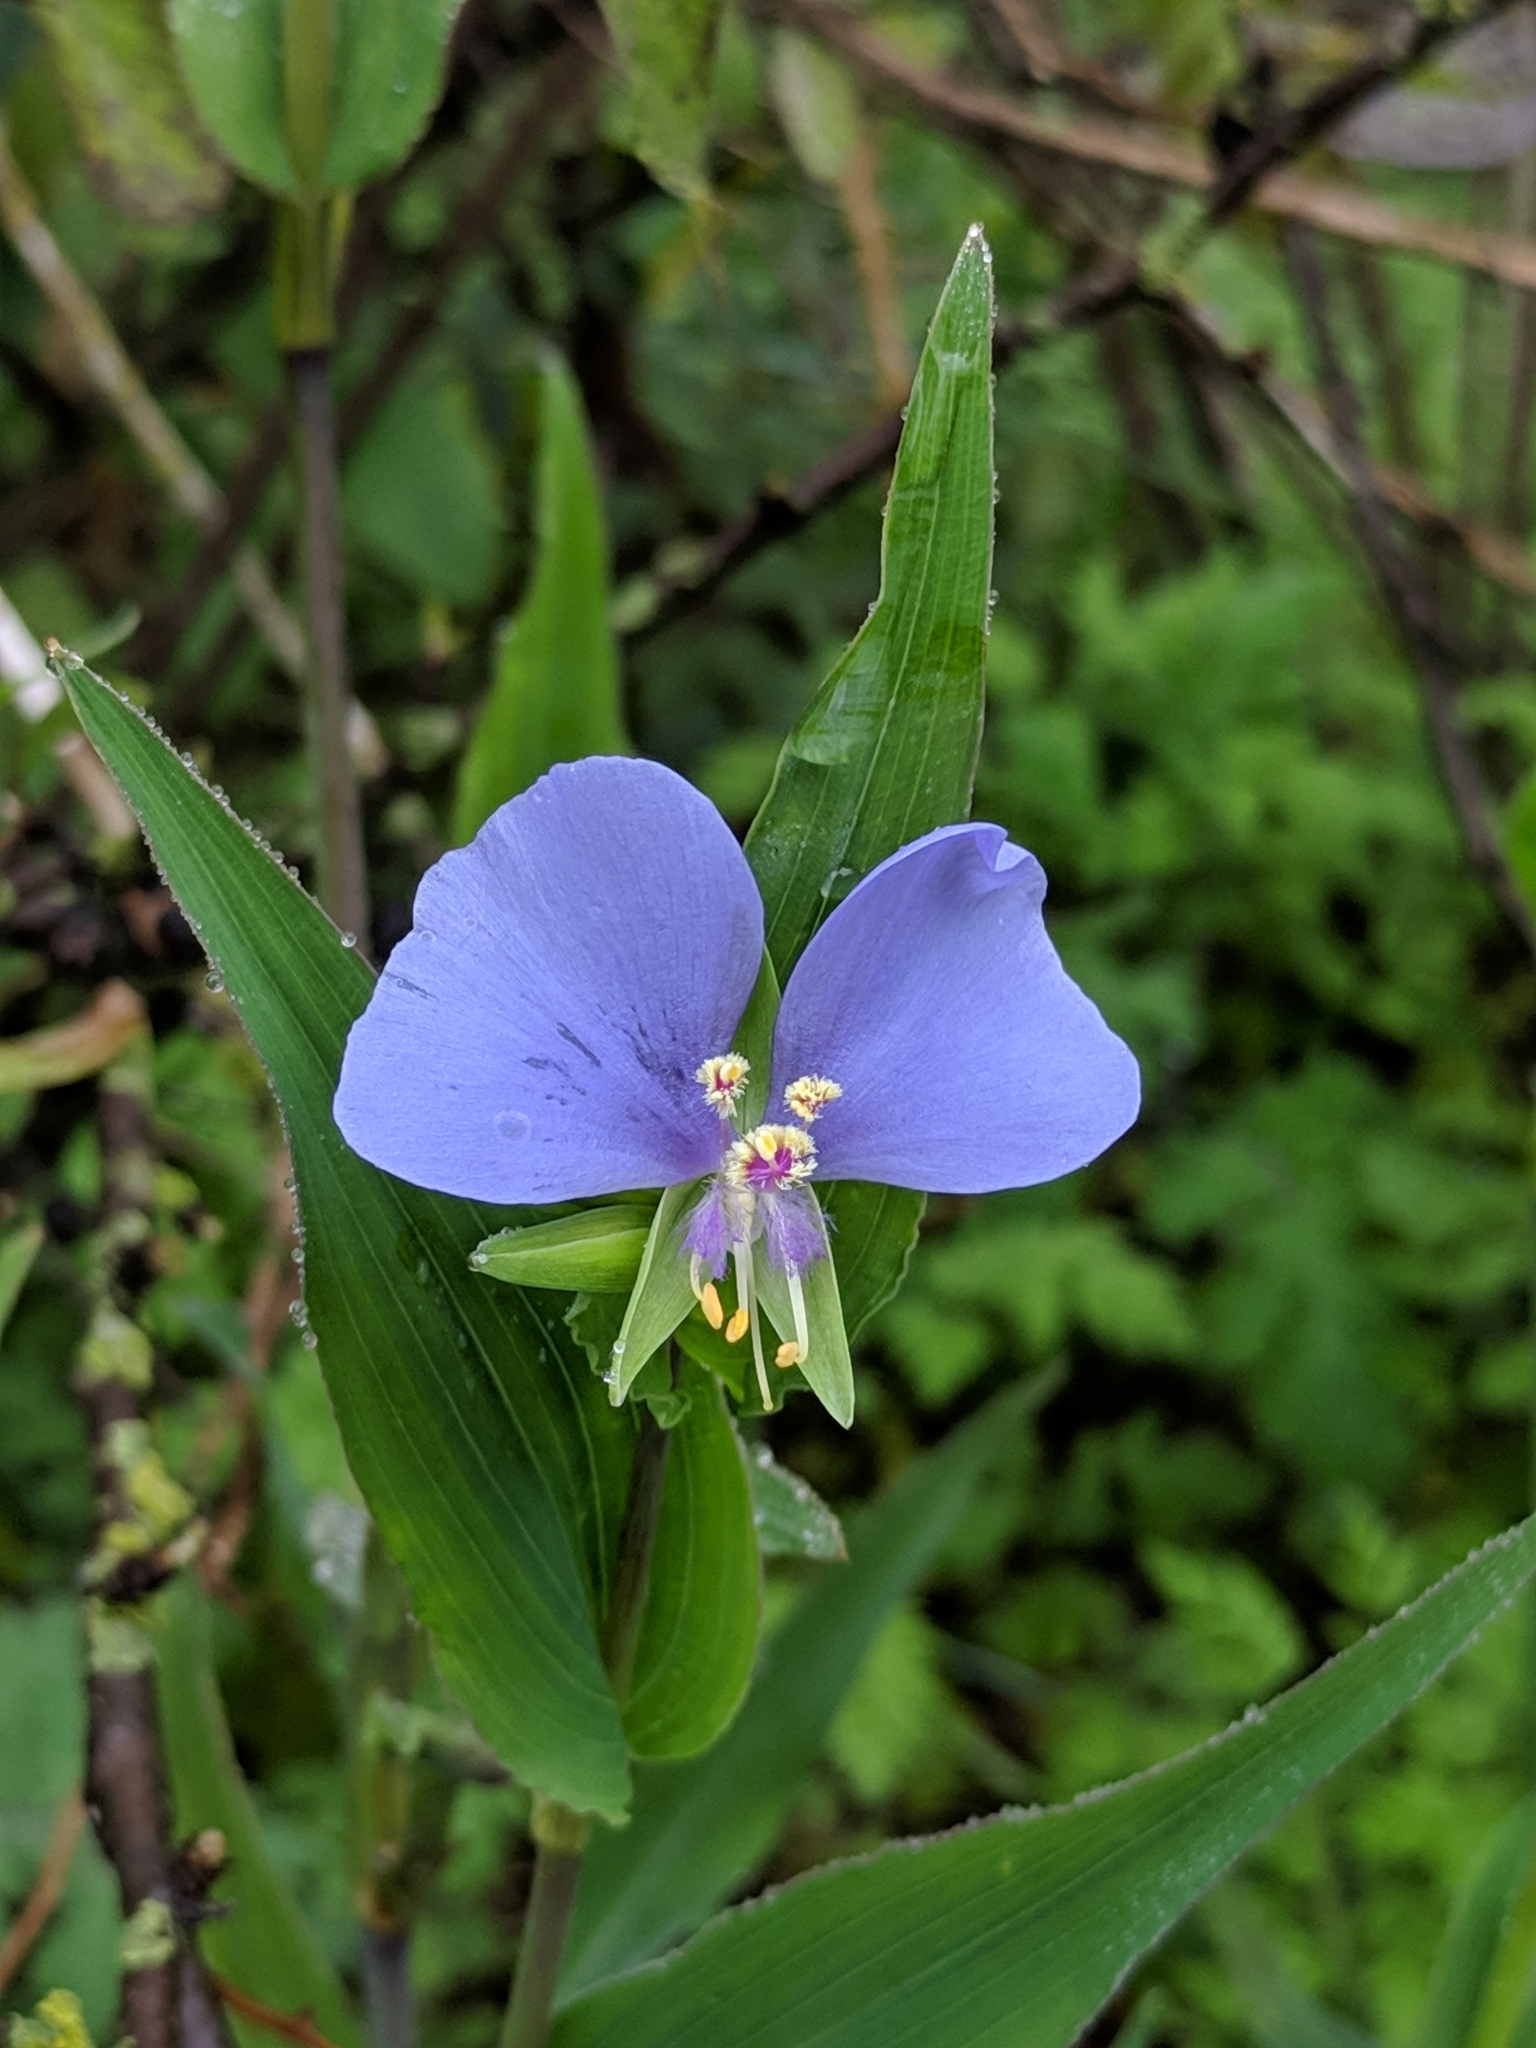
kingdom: Plantae
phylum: Tracheophyta
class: Liliopsida
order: Commelinales
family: Commelinaceae
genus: Tinantia
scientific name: Tinantia anomala
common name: False dayflower
